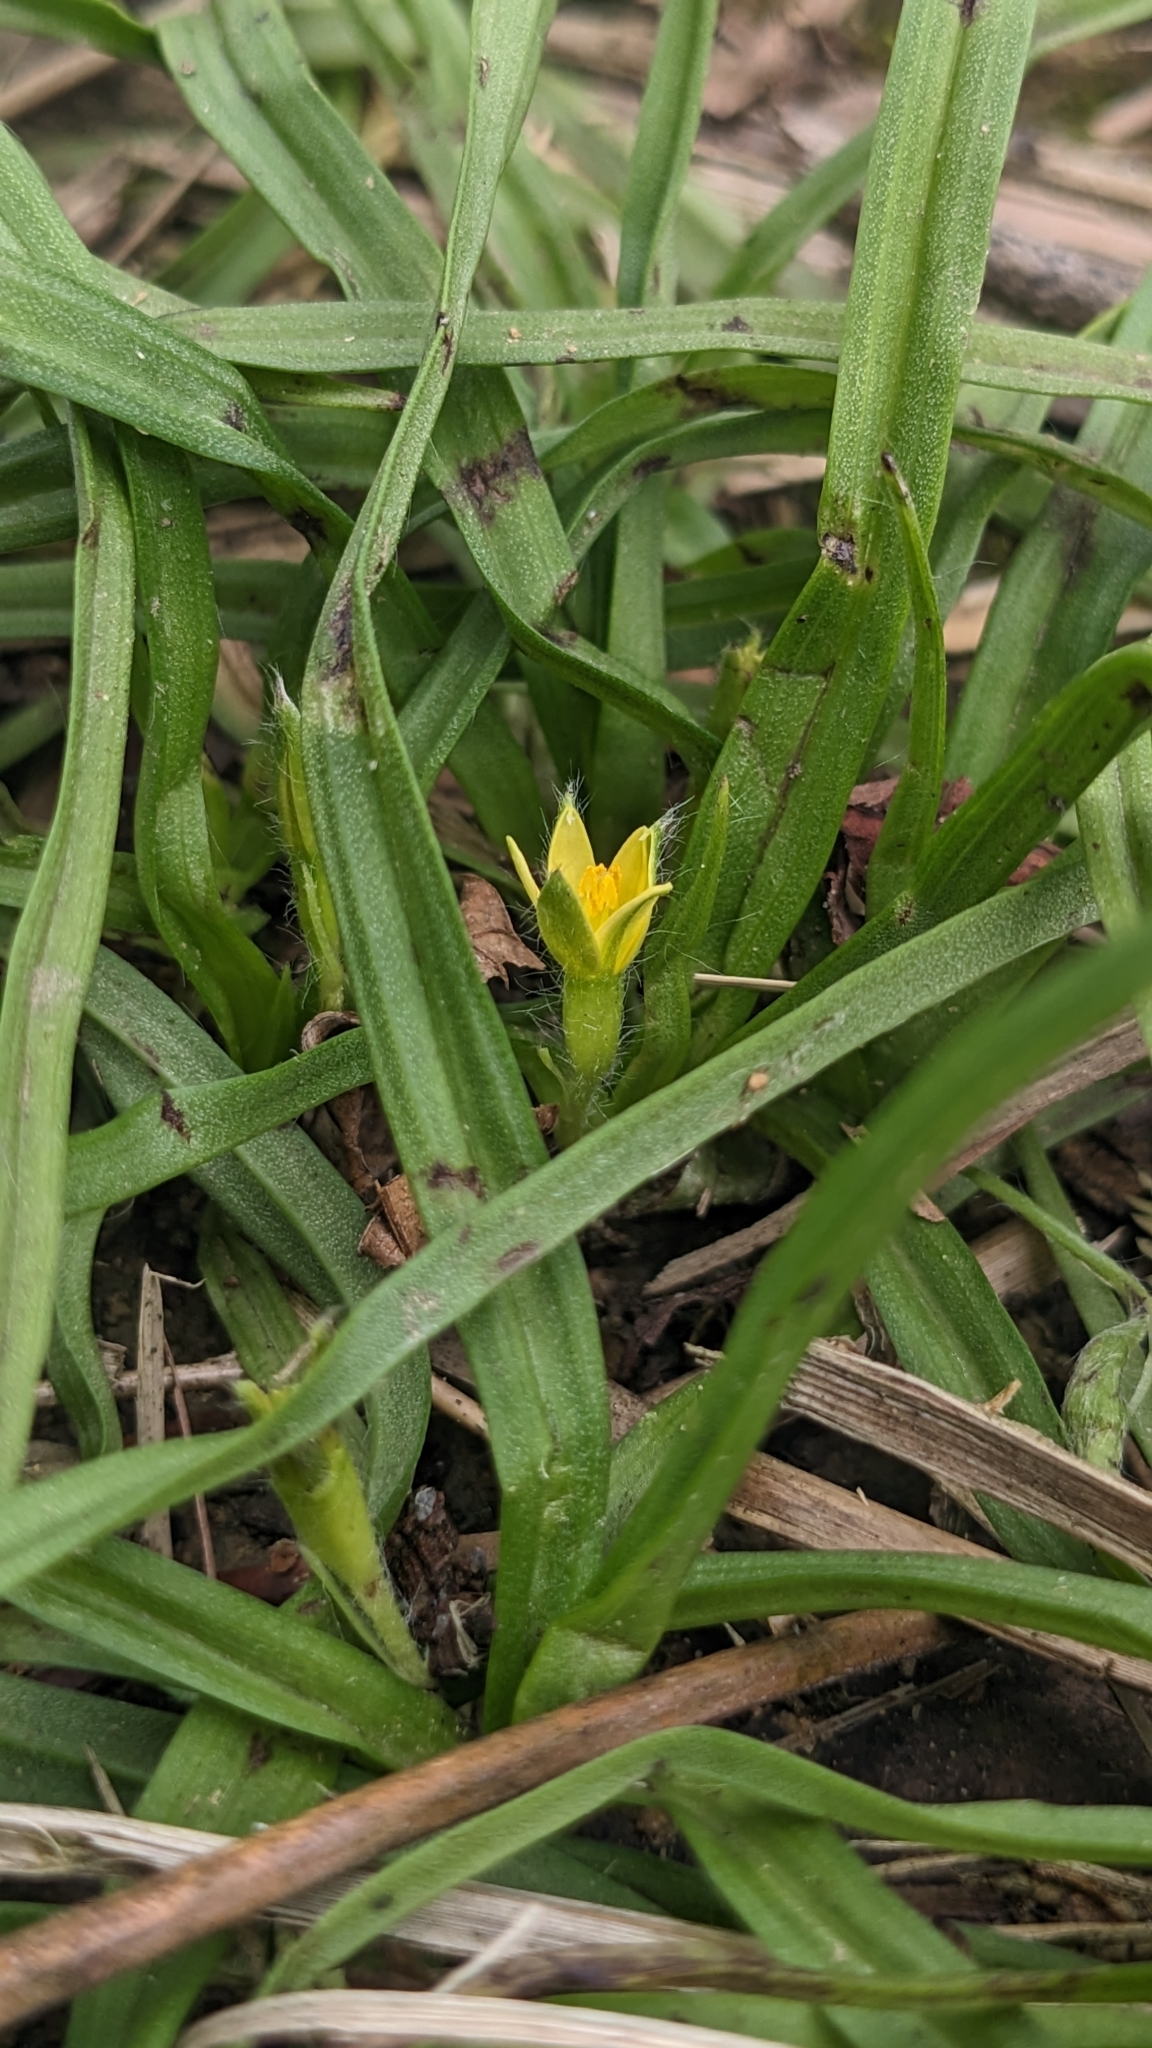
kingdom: Plantae
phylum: Tracheophyta
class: Liliopsida
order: Asparagales
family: Hypoxidaceae
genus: Hypoxis
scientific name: Hypoxis aurea
